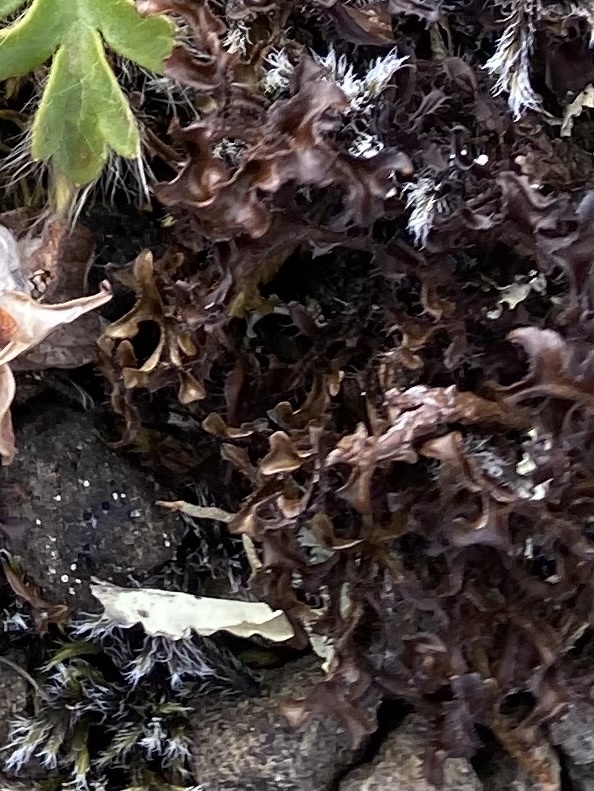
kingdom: Fungi
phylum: Ascomycota
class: Lecanoromycetes
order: Lecanorales
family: Parmeliaceae
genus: Cetraria
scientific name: Cetraria islandica
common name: Iceland lichen
